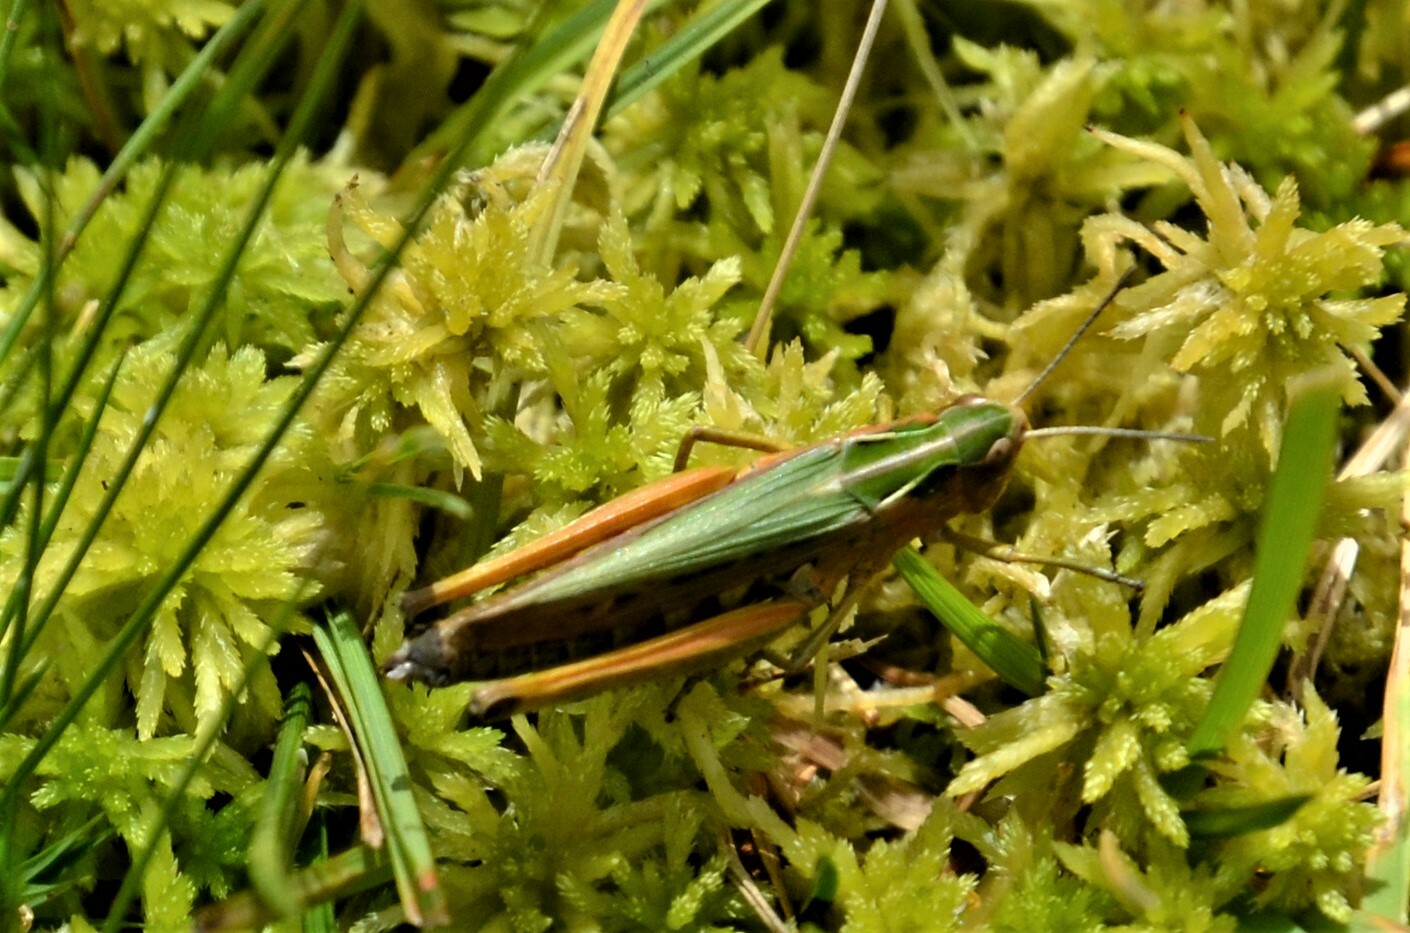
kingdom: Animalia
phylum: Arthropoda
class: Insecta
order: Orthoptera
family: Acrididae
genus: Omocestus
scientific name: Omocestus viridulus
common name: Common green grasshopper
